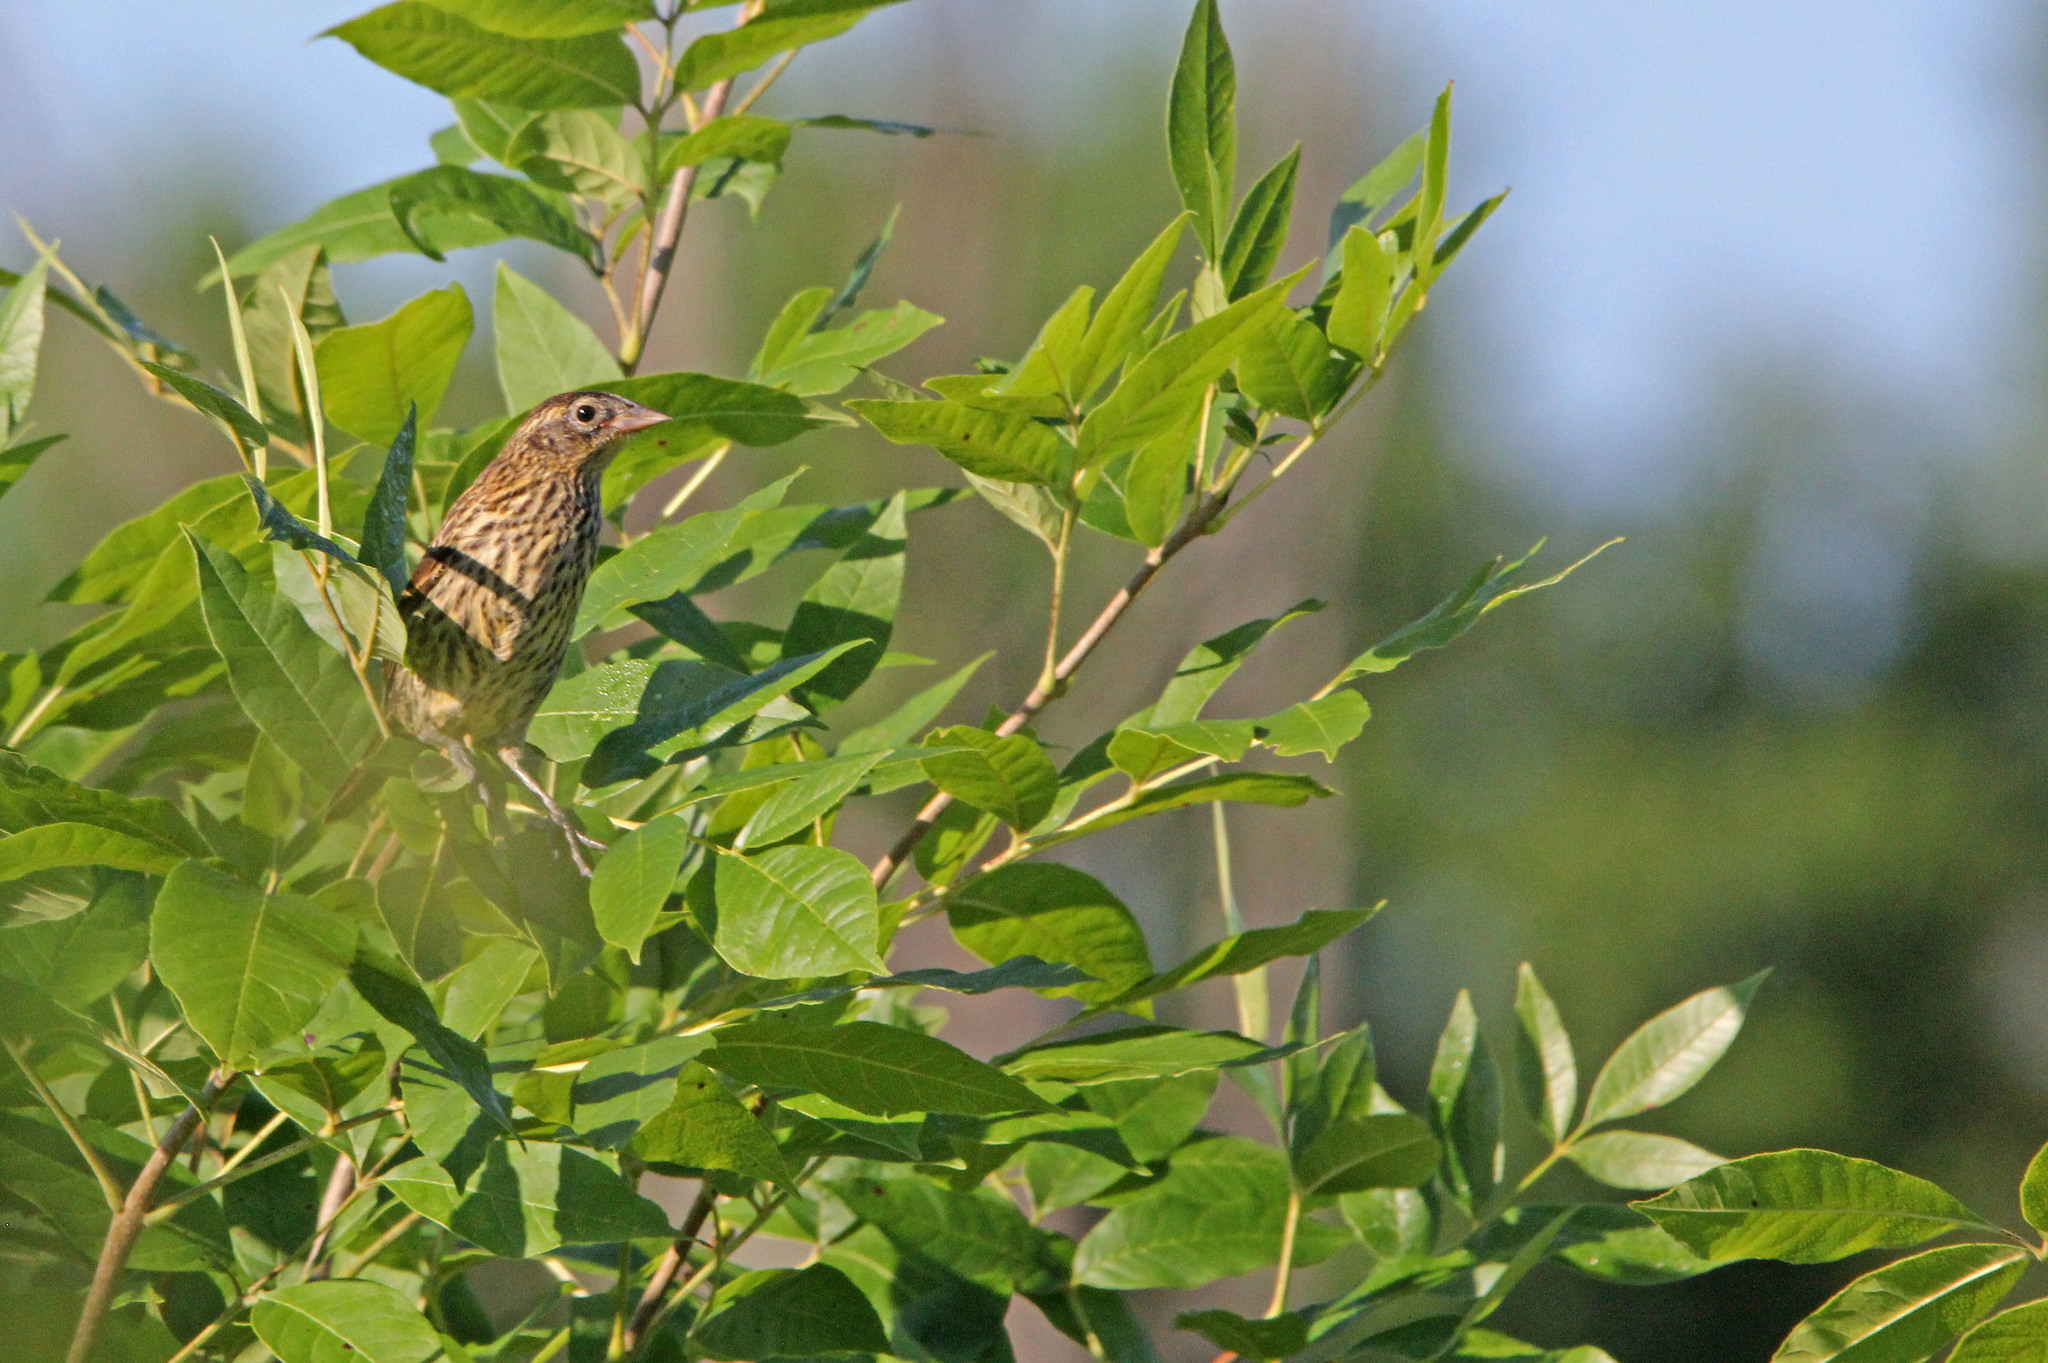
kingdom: Animalia
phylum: Chordata
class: Aves
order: Passeriformes
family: Icteridae
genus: Agelaius
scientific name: Agelaius phoeniceus
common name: Red-winged blackbird
